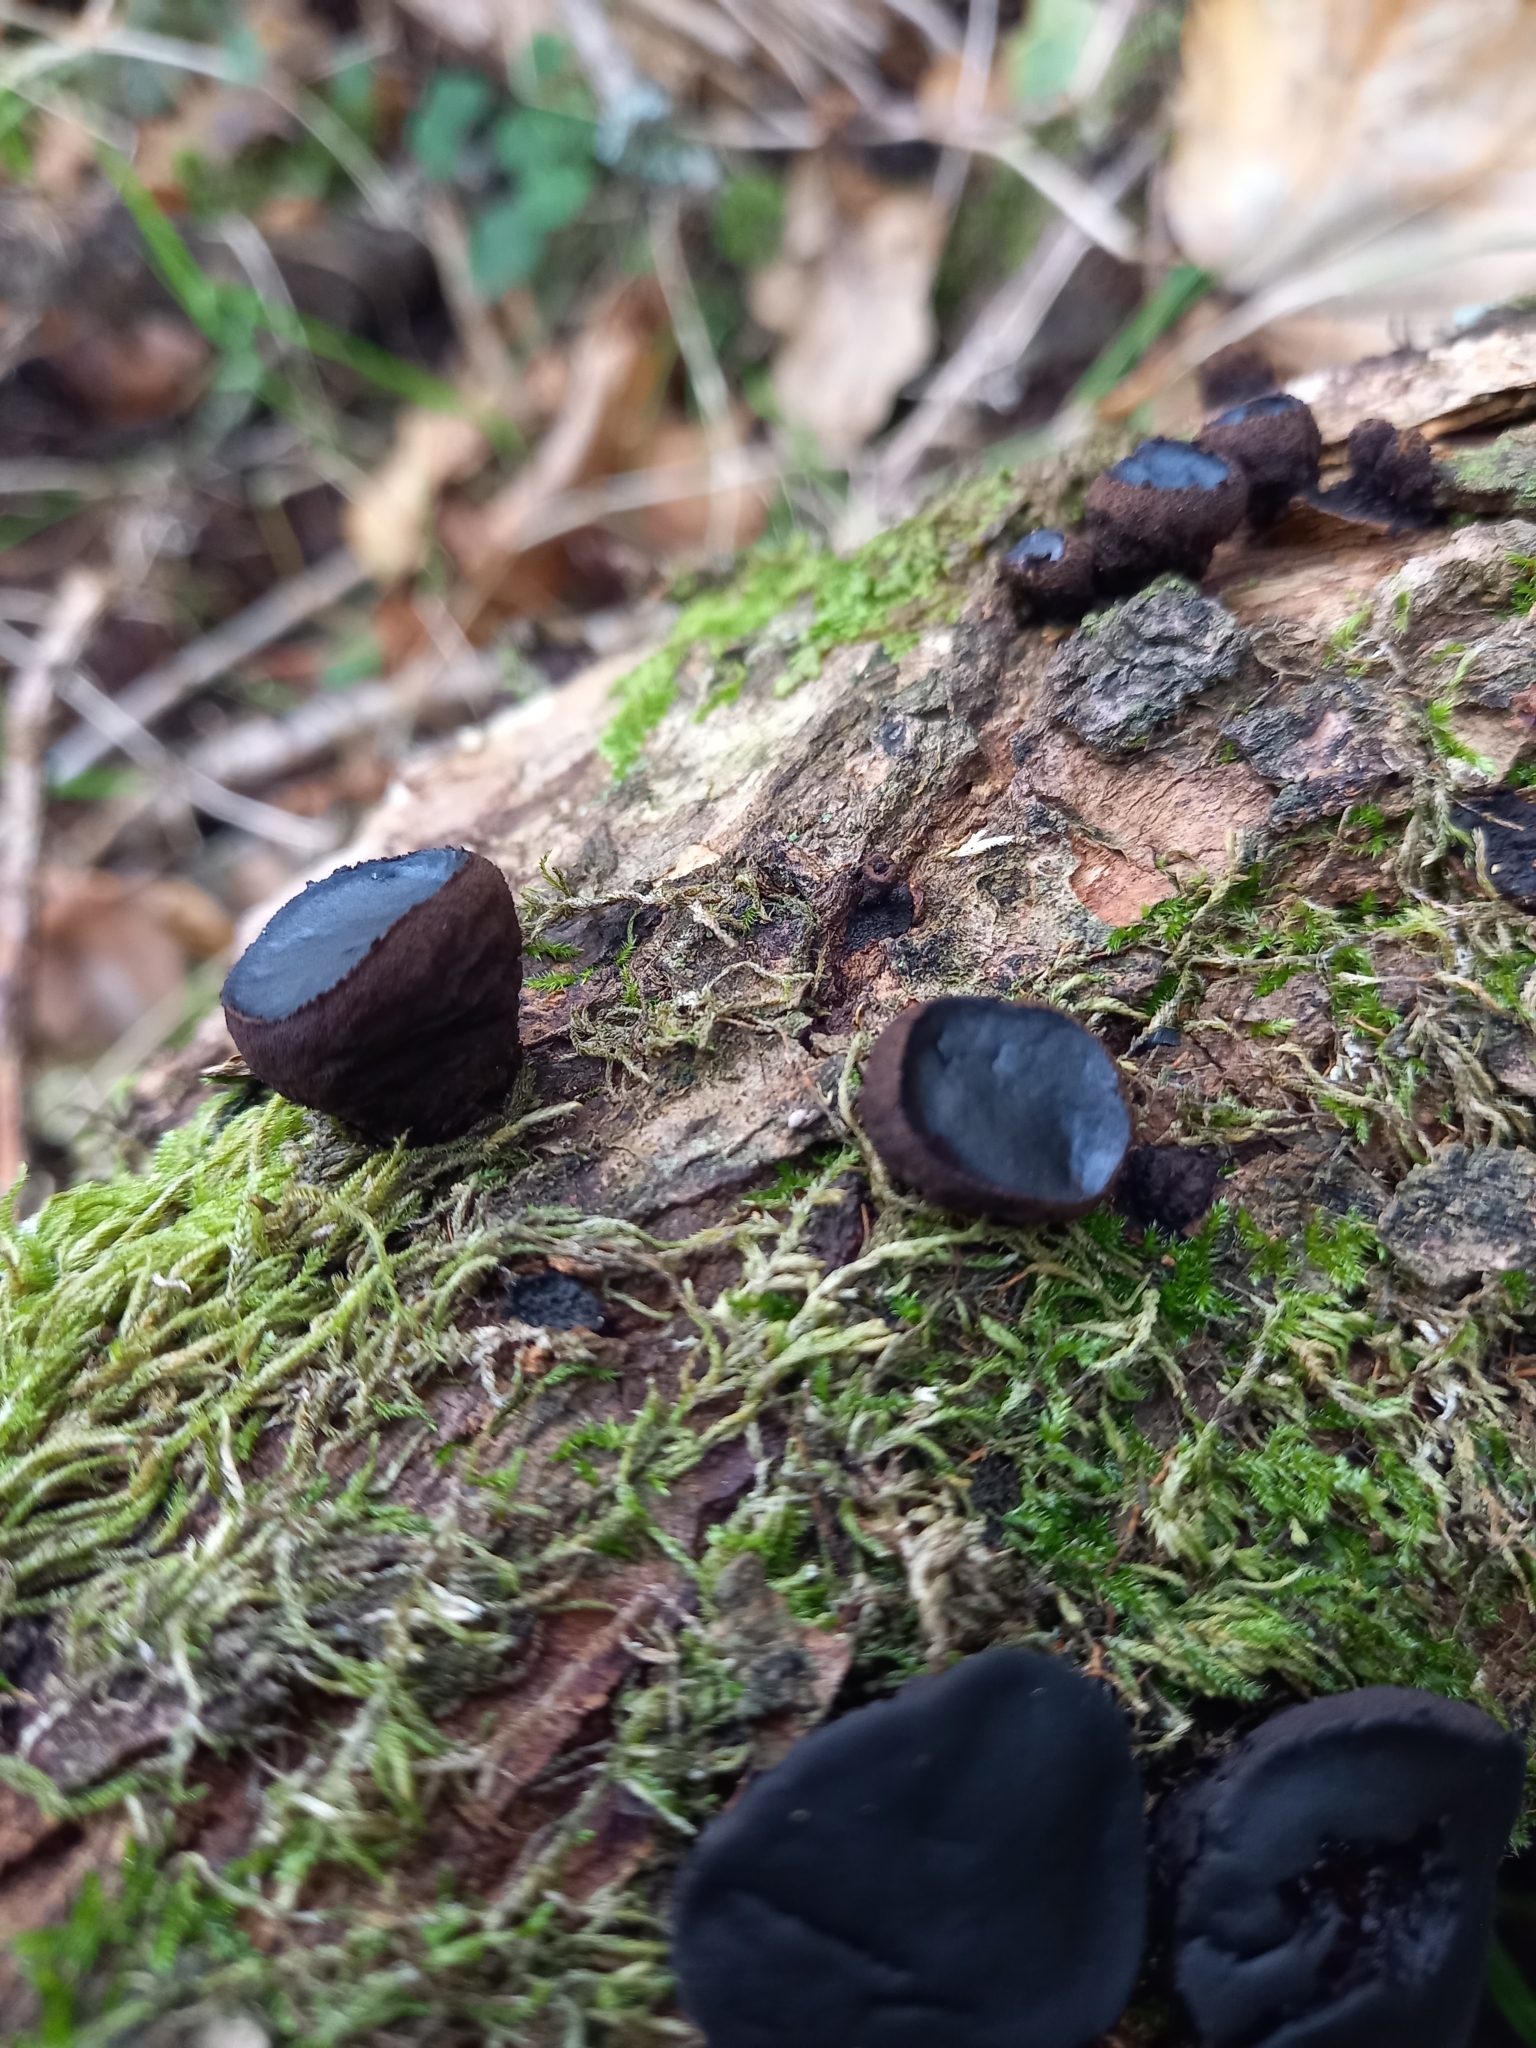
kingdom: Fungi
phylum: Ascomycota
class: Leotiomycetes
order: Phacidiales
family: Phacidiaceae
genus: Bulgaria
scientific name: Bulgaria inquinans
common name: Black bulgar
